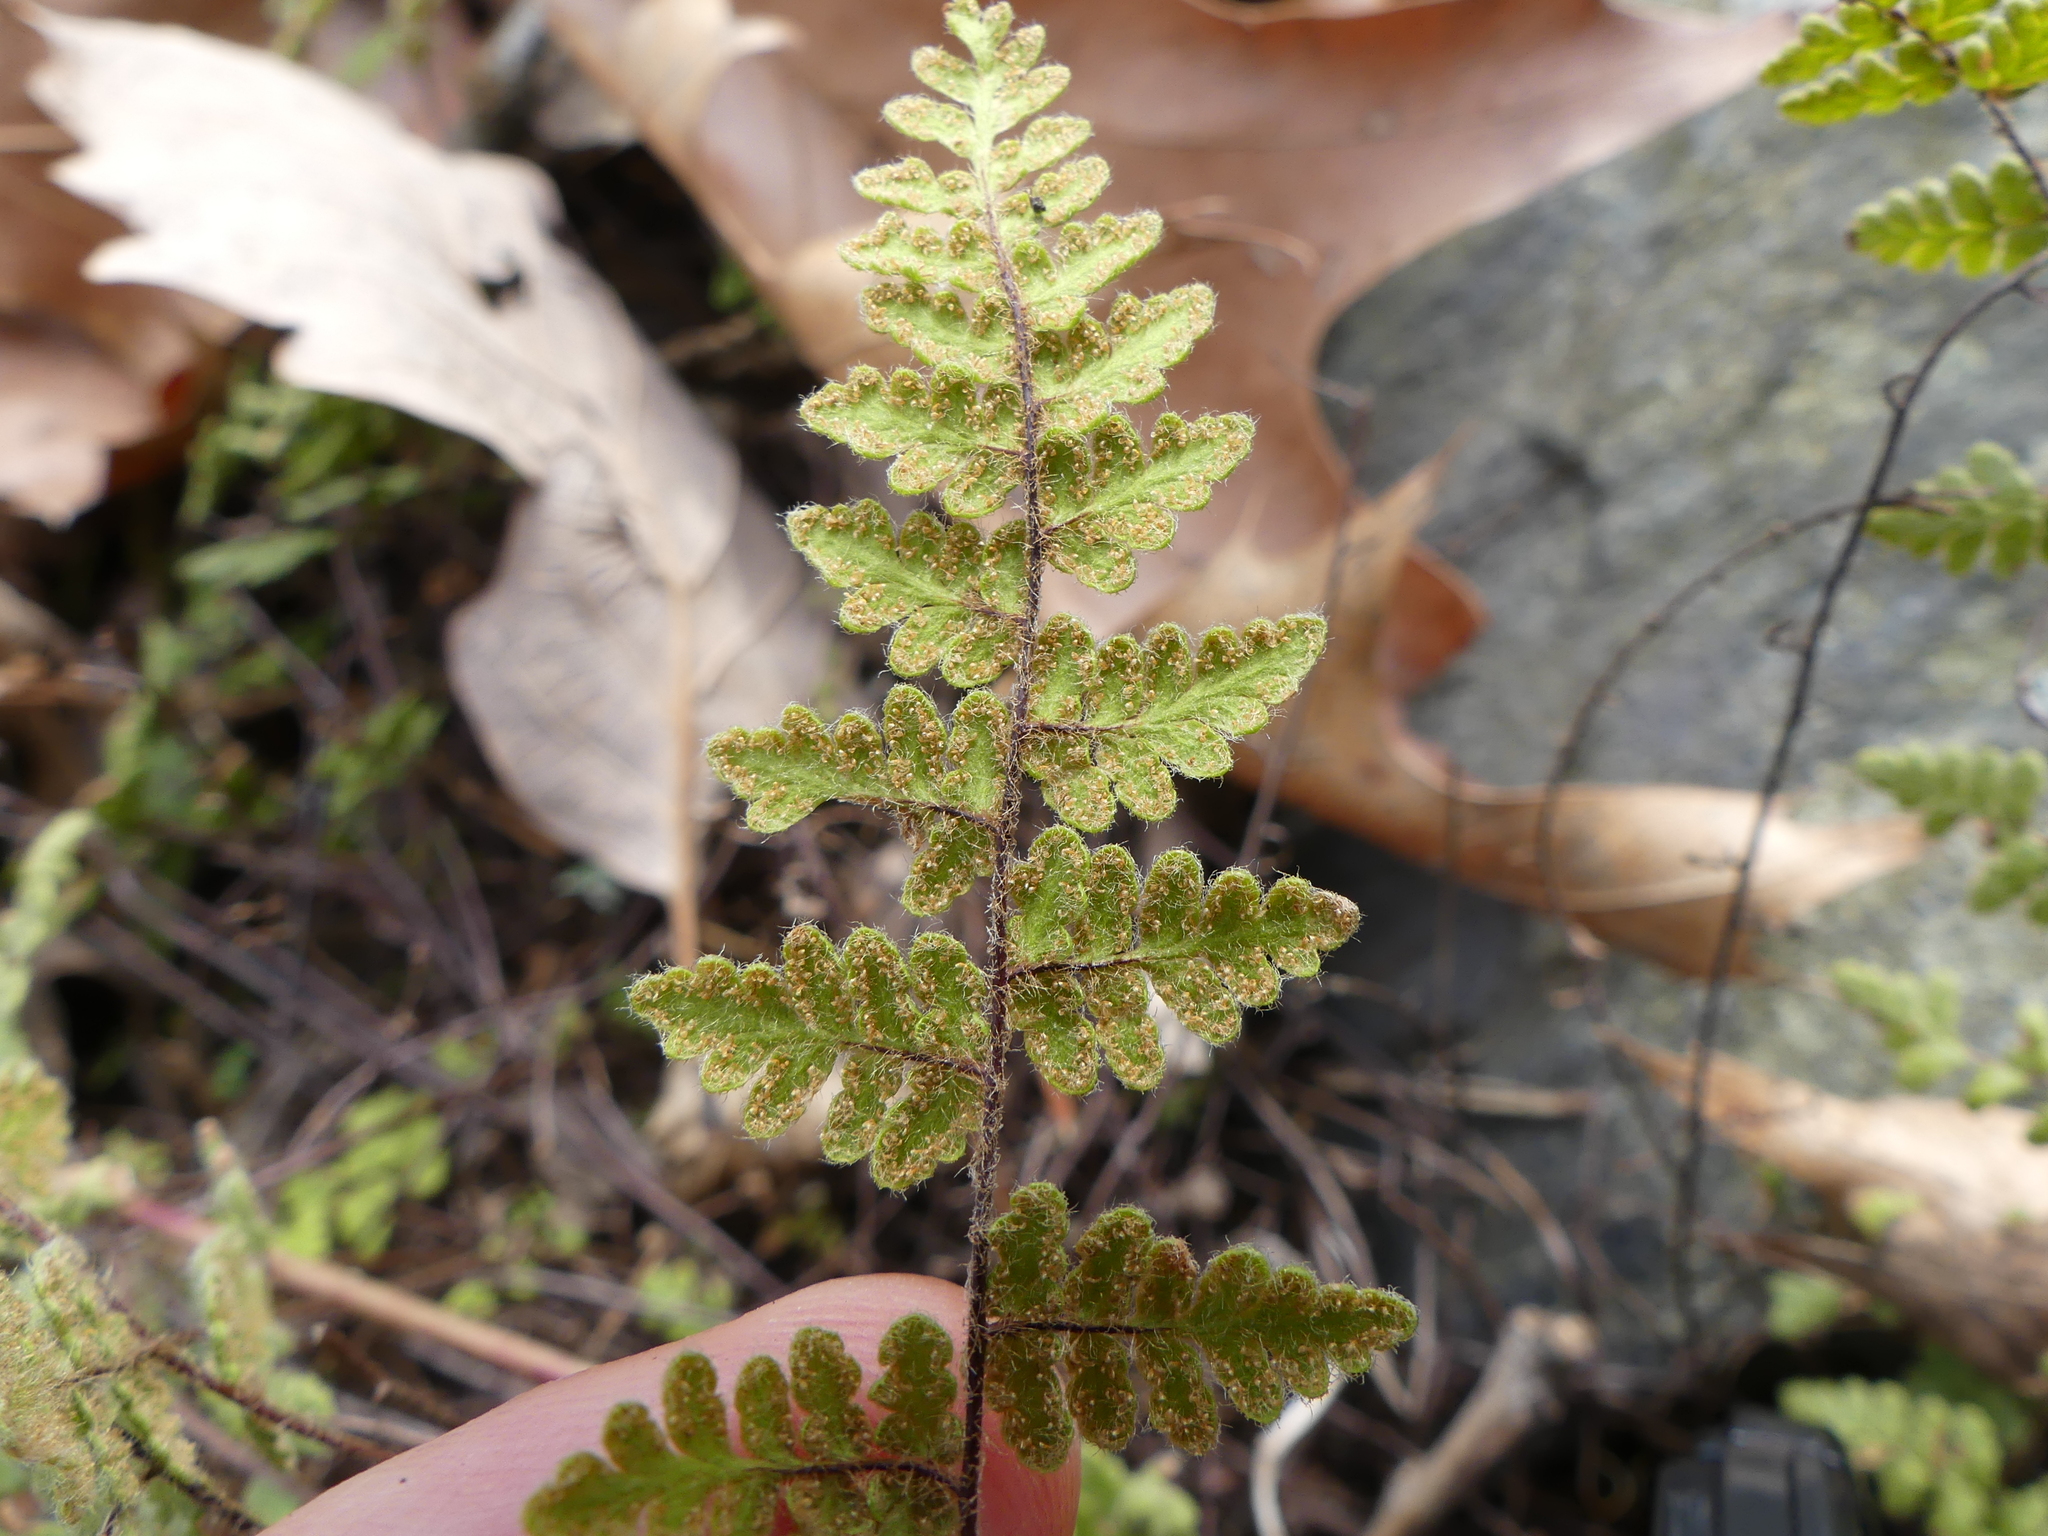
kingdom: Plantae
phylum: Tracheophyta
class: Polypodiopsida
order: Polypodiales
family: Pteridaceae
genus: Myriopteris
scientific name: Myriopteris lanosa
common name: Hairy lip fern
